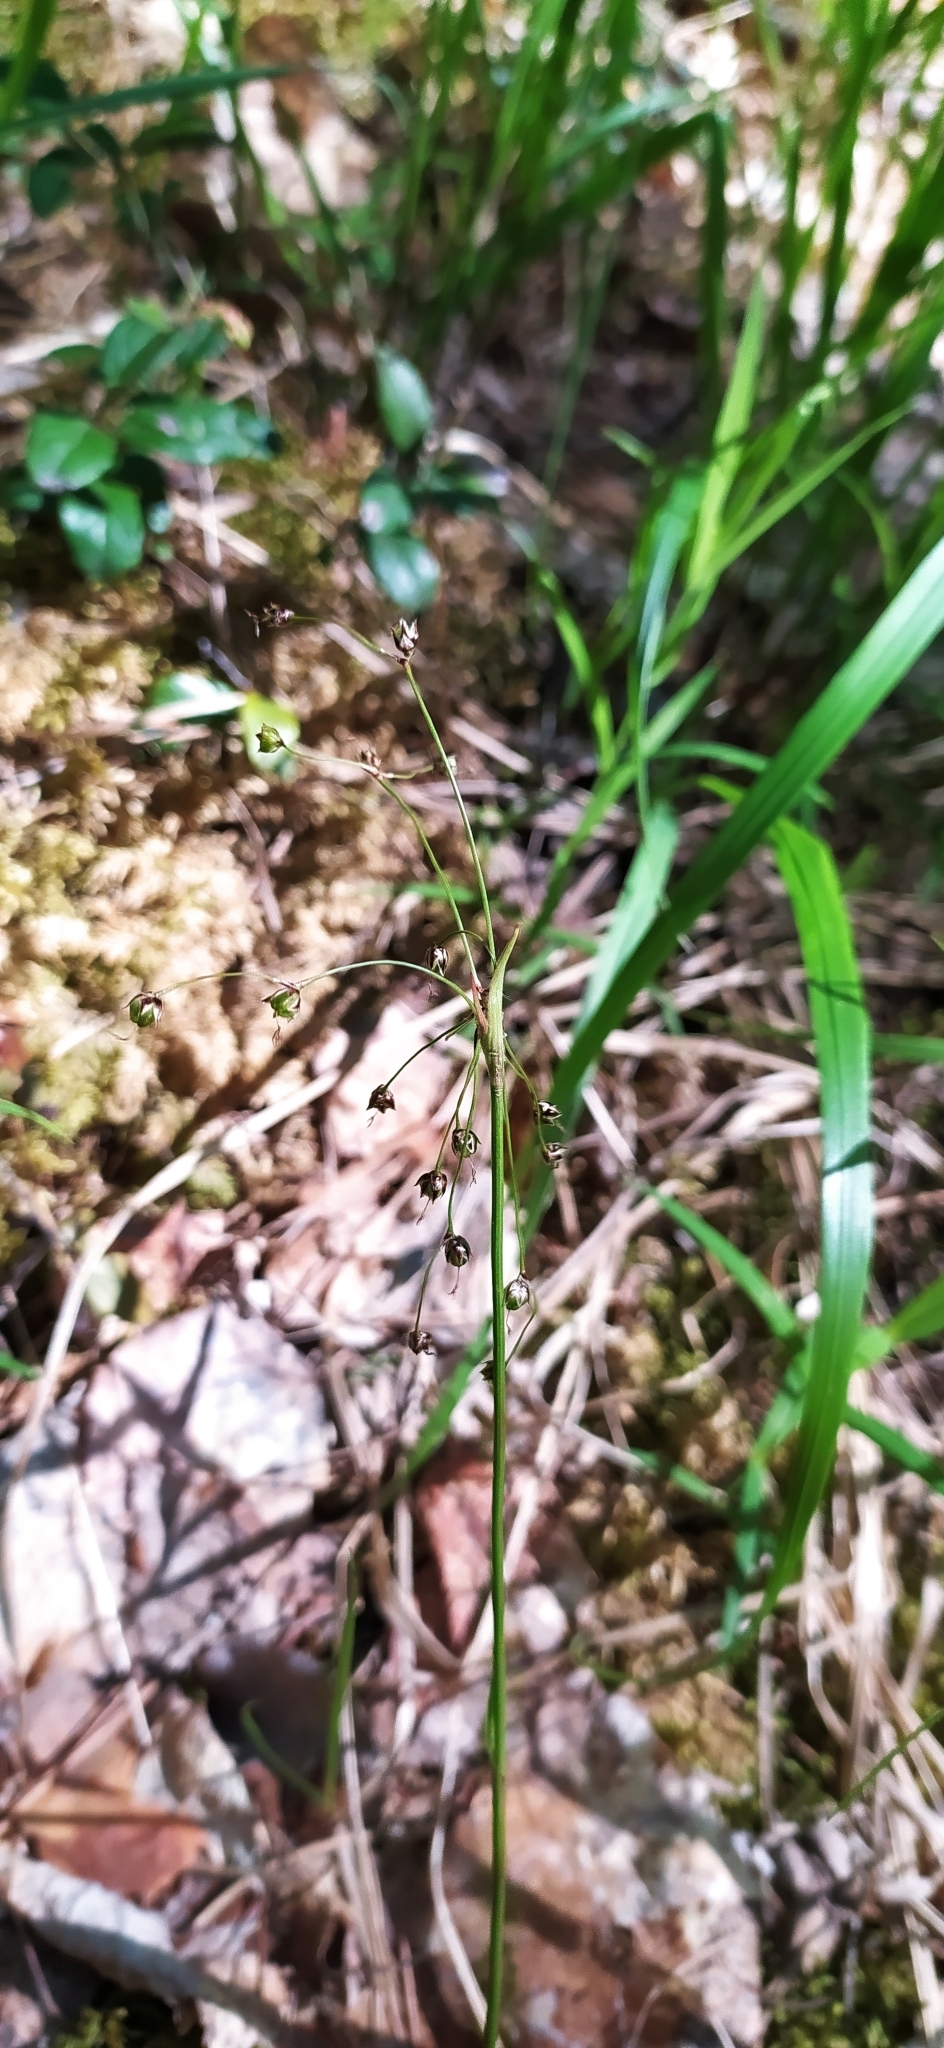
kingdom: Plantae
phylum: Tracheophyta
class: Liliopsida
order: Poales
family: Juncaceae
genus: Luzula
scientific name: Luzula pilosa
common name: Hairy wood-rush
